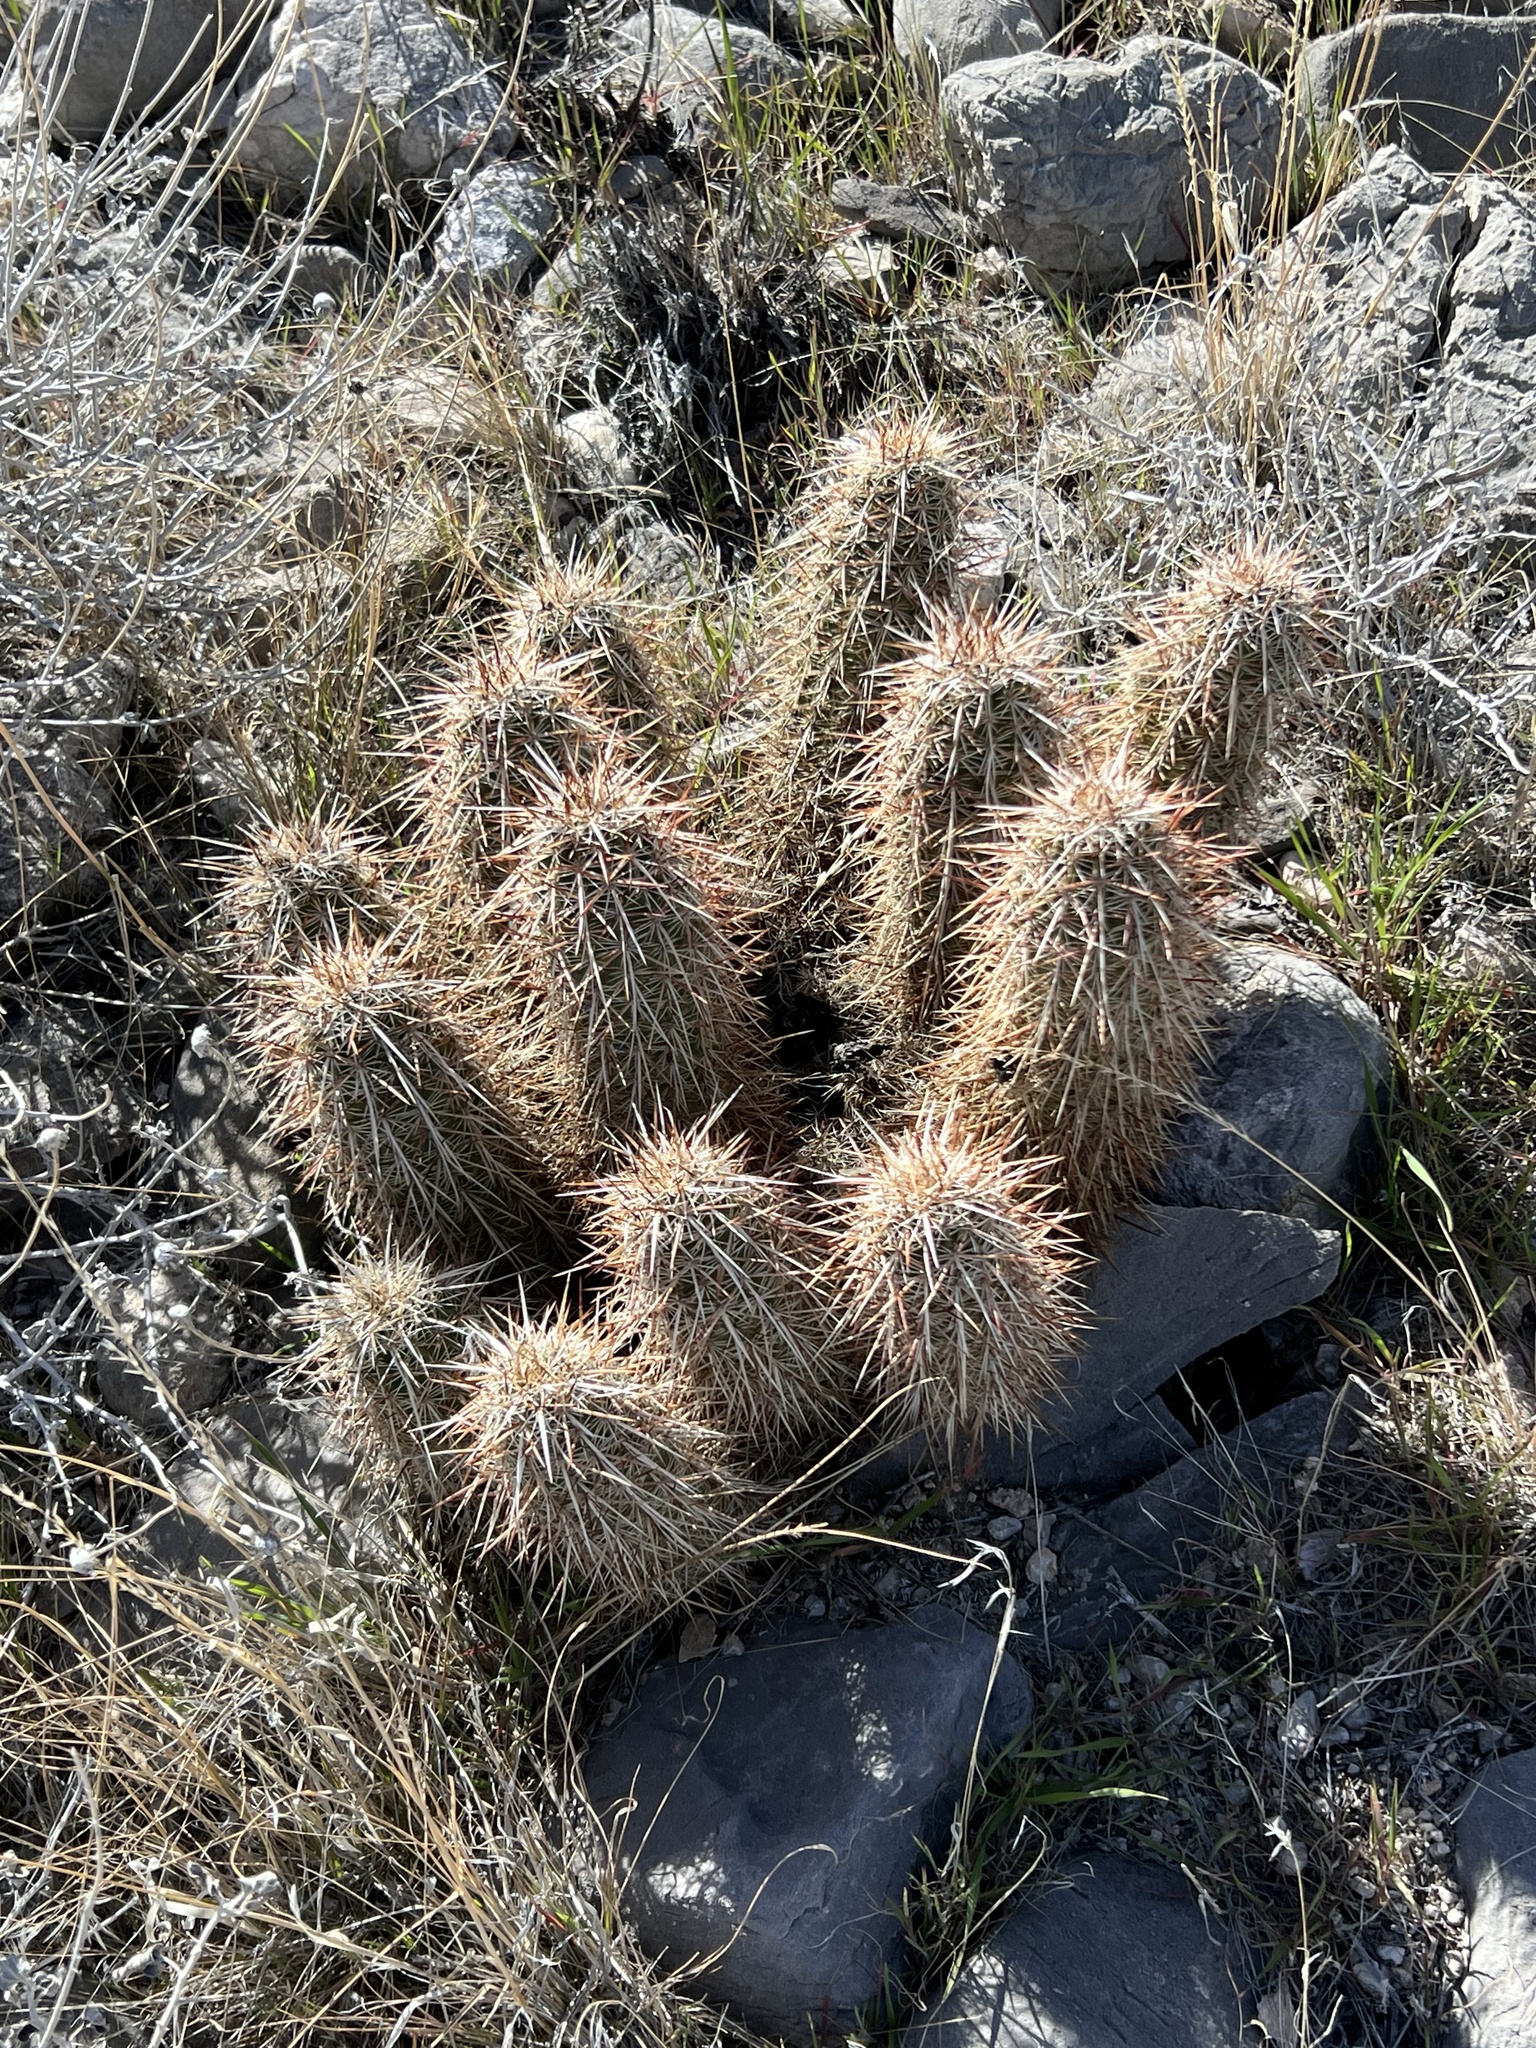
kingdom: Plantae
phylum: Tracheophyta
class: Magnoliopsida
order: Caryophyllales
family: Cactaceae
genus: Echinocereus
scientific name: Echinocereus engelmannii
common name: Engelmann's hedgehog cactus
